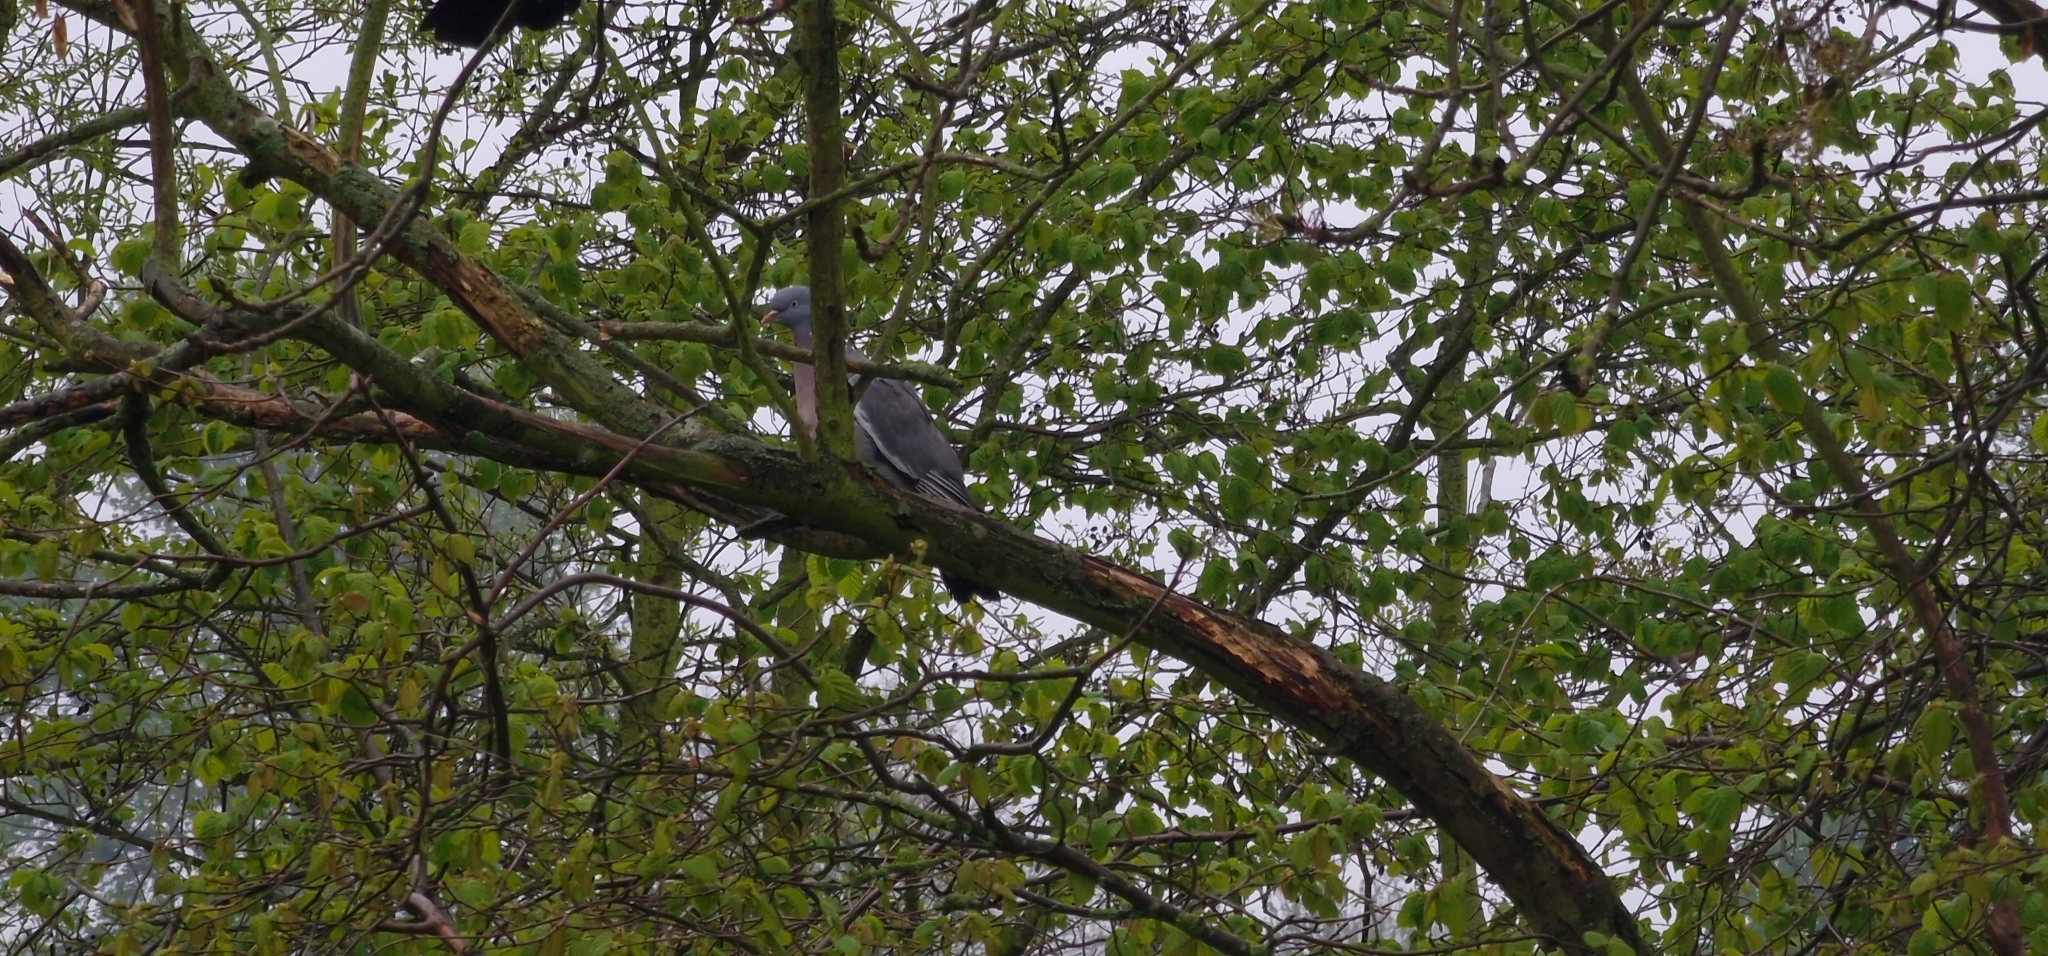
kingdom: Animalia
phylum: Chordata
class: Aves
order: Columbiformes
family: Columbidae
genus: Columba
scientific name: Columba palumbus
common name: Common wood pigeon
